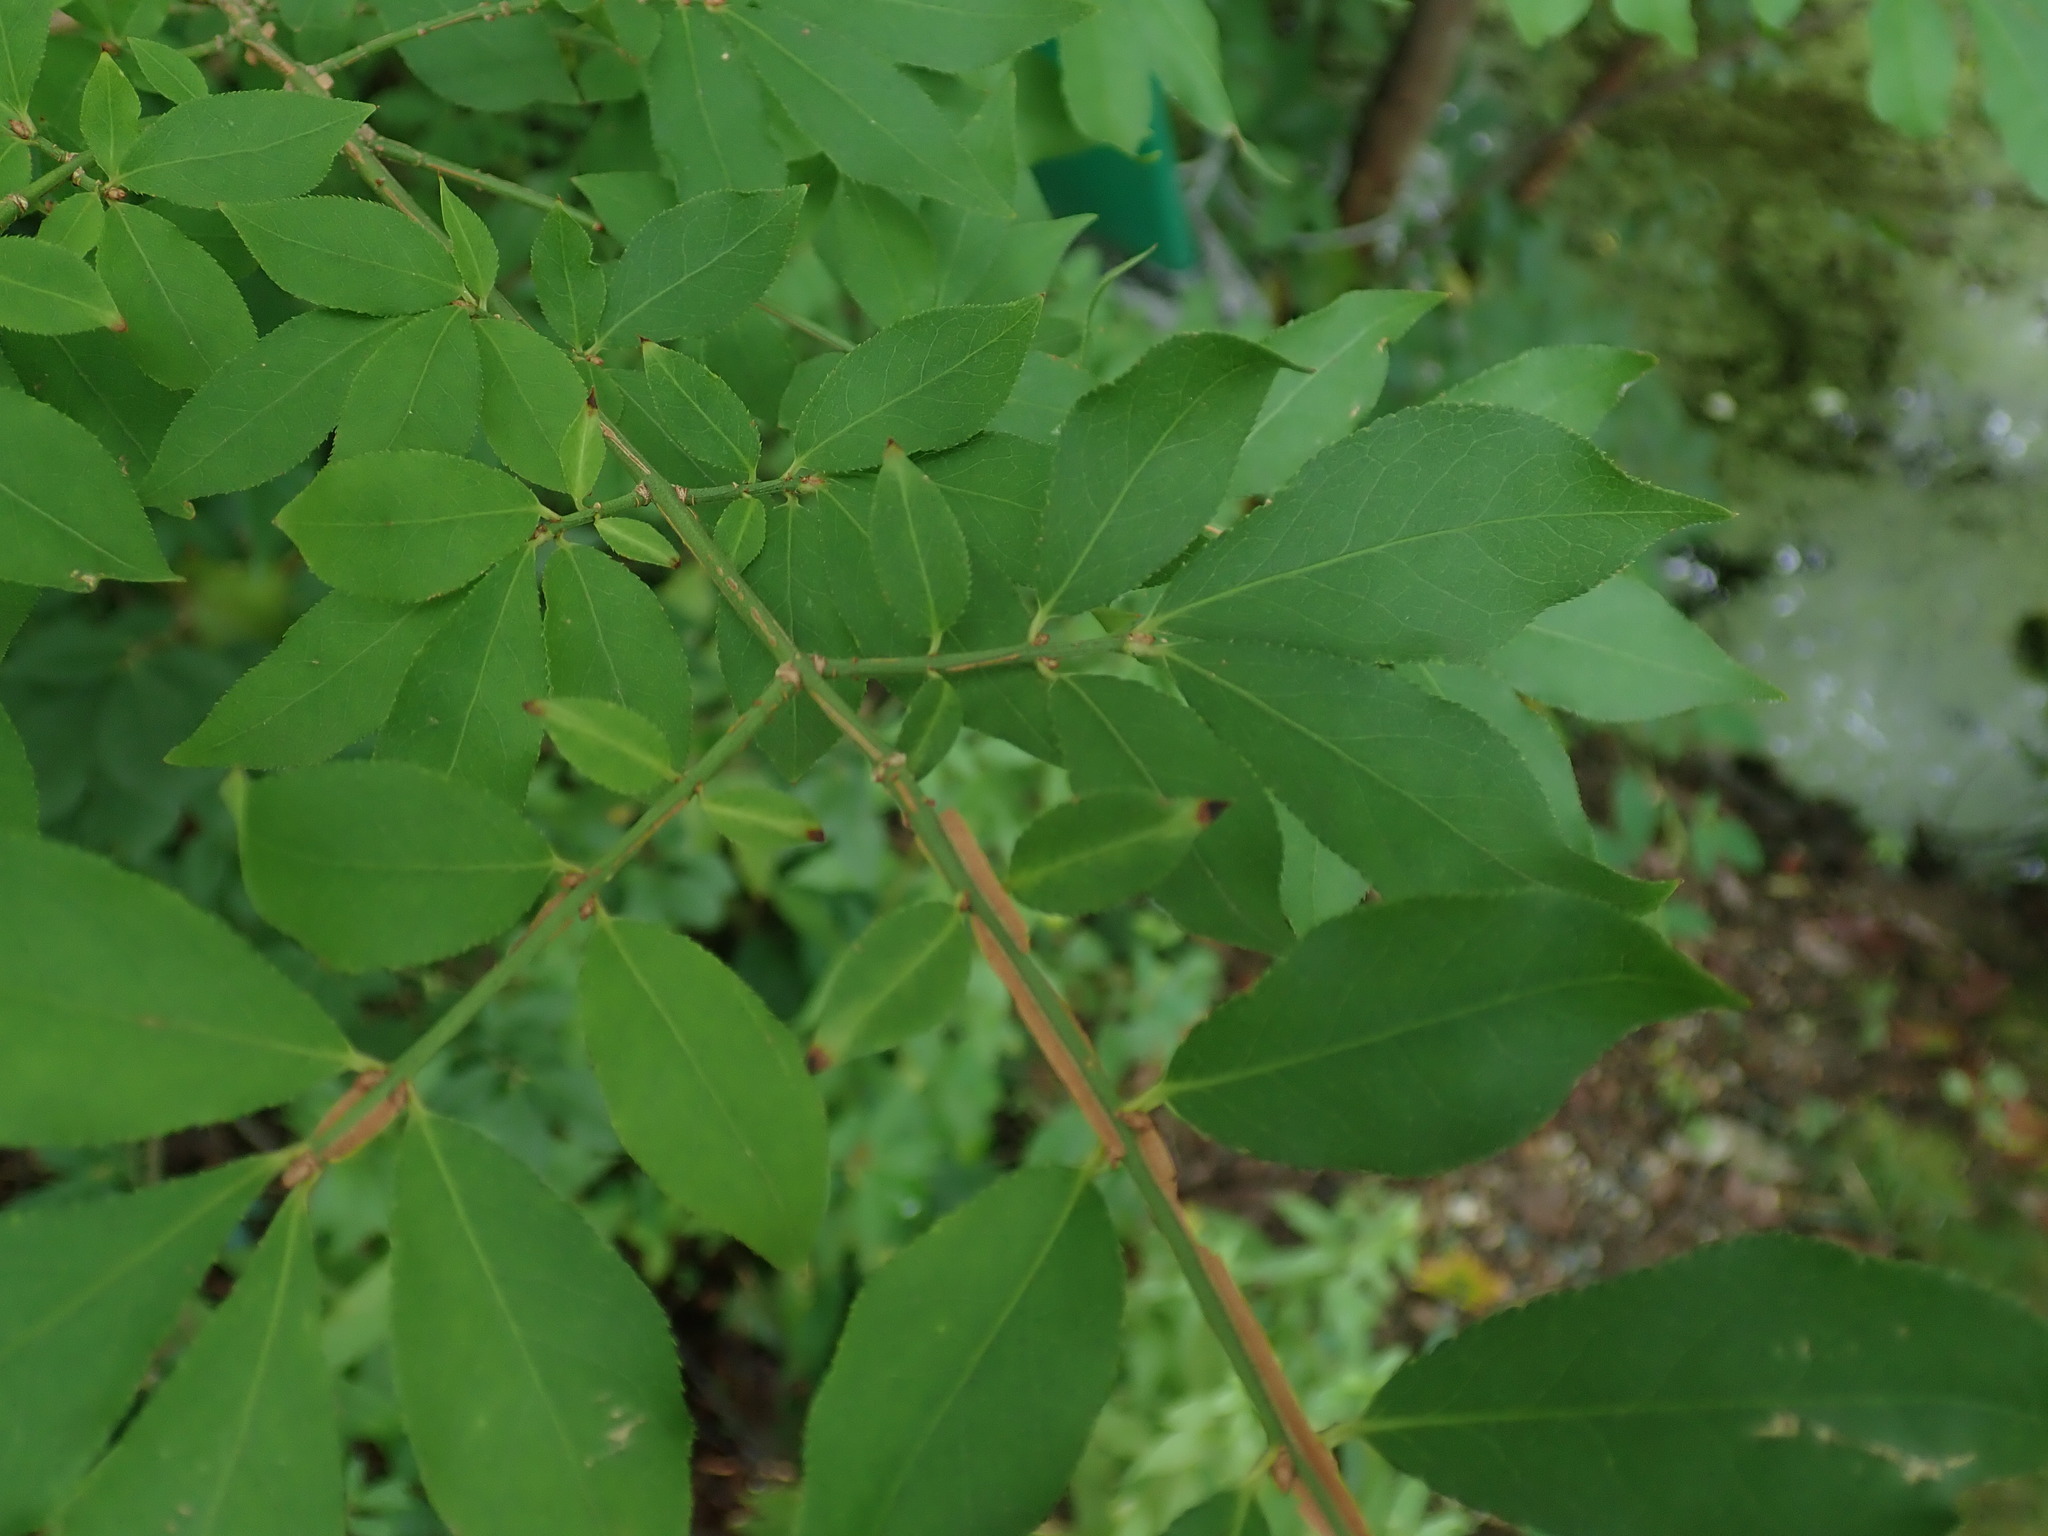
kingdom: Plantae
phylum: Tracheophyta
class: Magnoliopsida
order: Celastrales
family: Celastraceae
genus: Euonymus
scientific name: Euonymus alatus
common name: Winged euonymus
